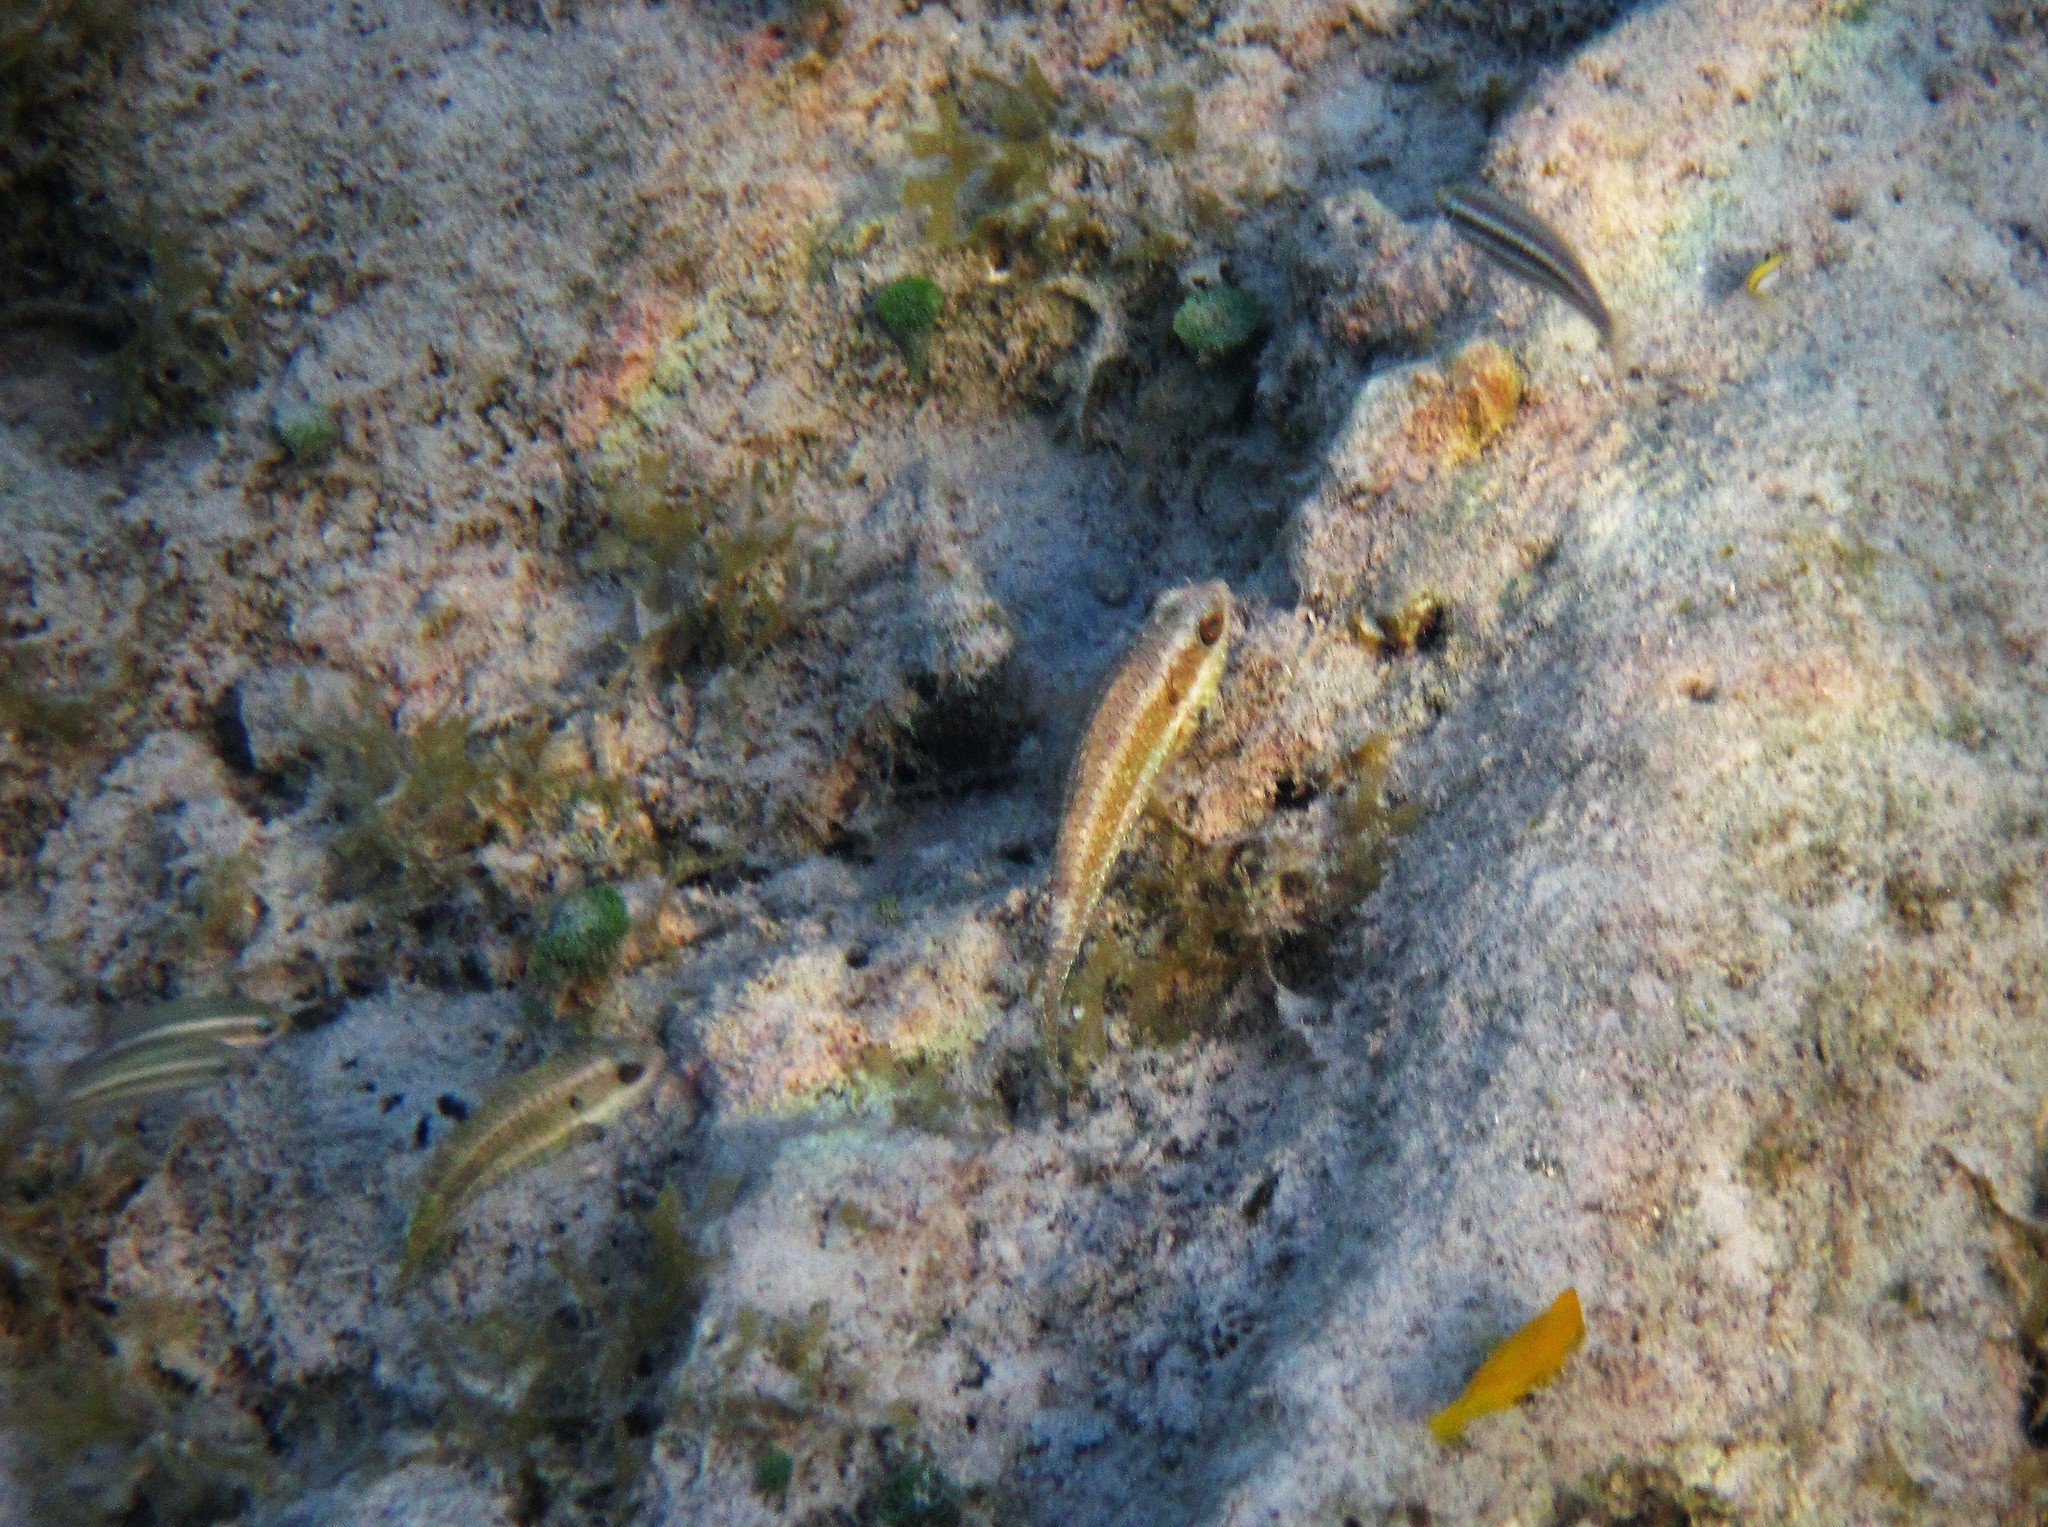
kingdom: Animalia
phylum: Chordata
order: Perciformes
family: Scaridae
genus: Sparisoma
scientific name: Sparisoma
